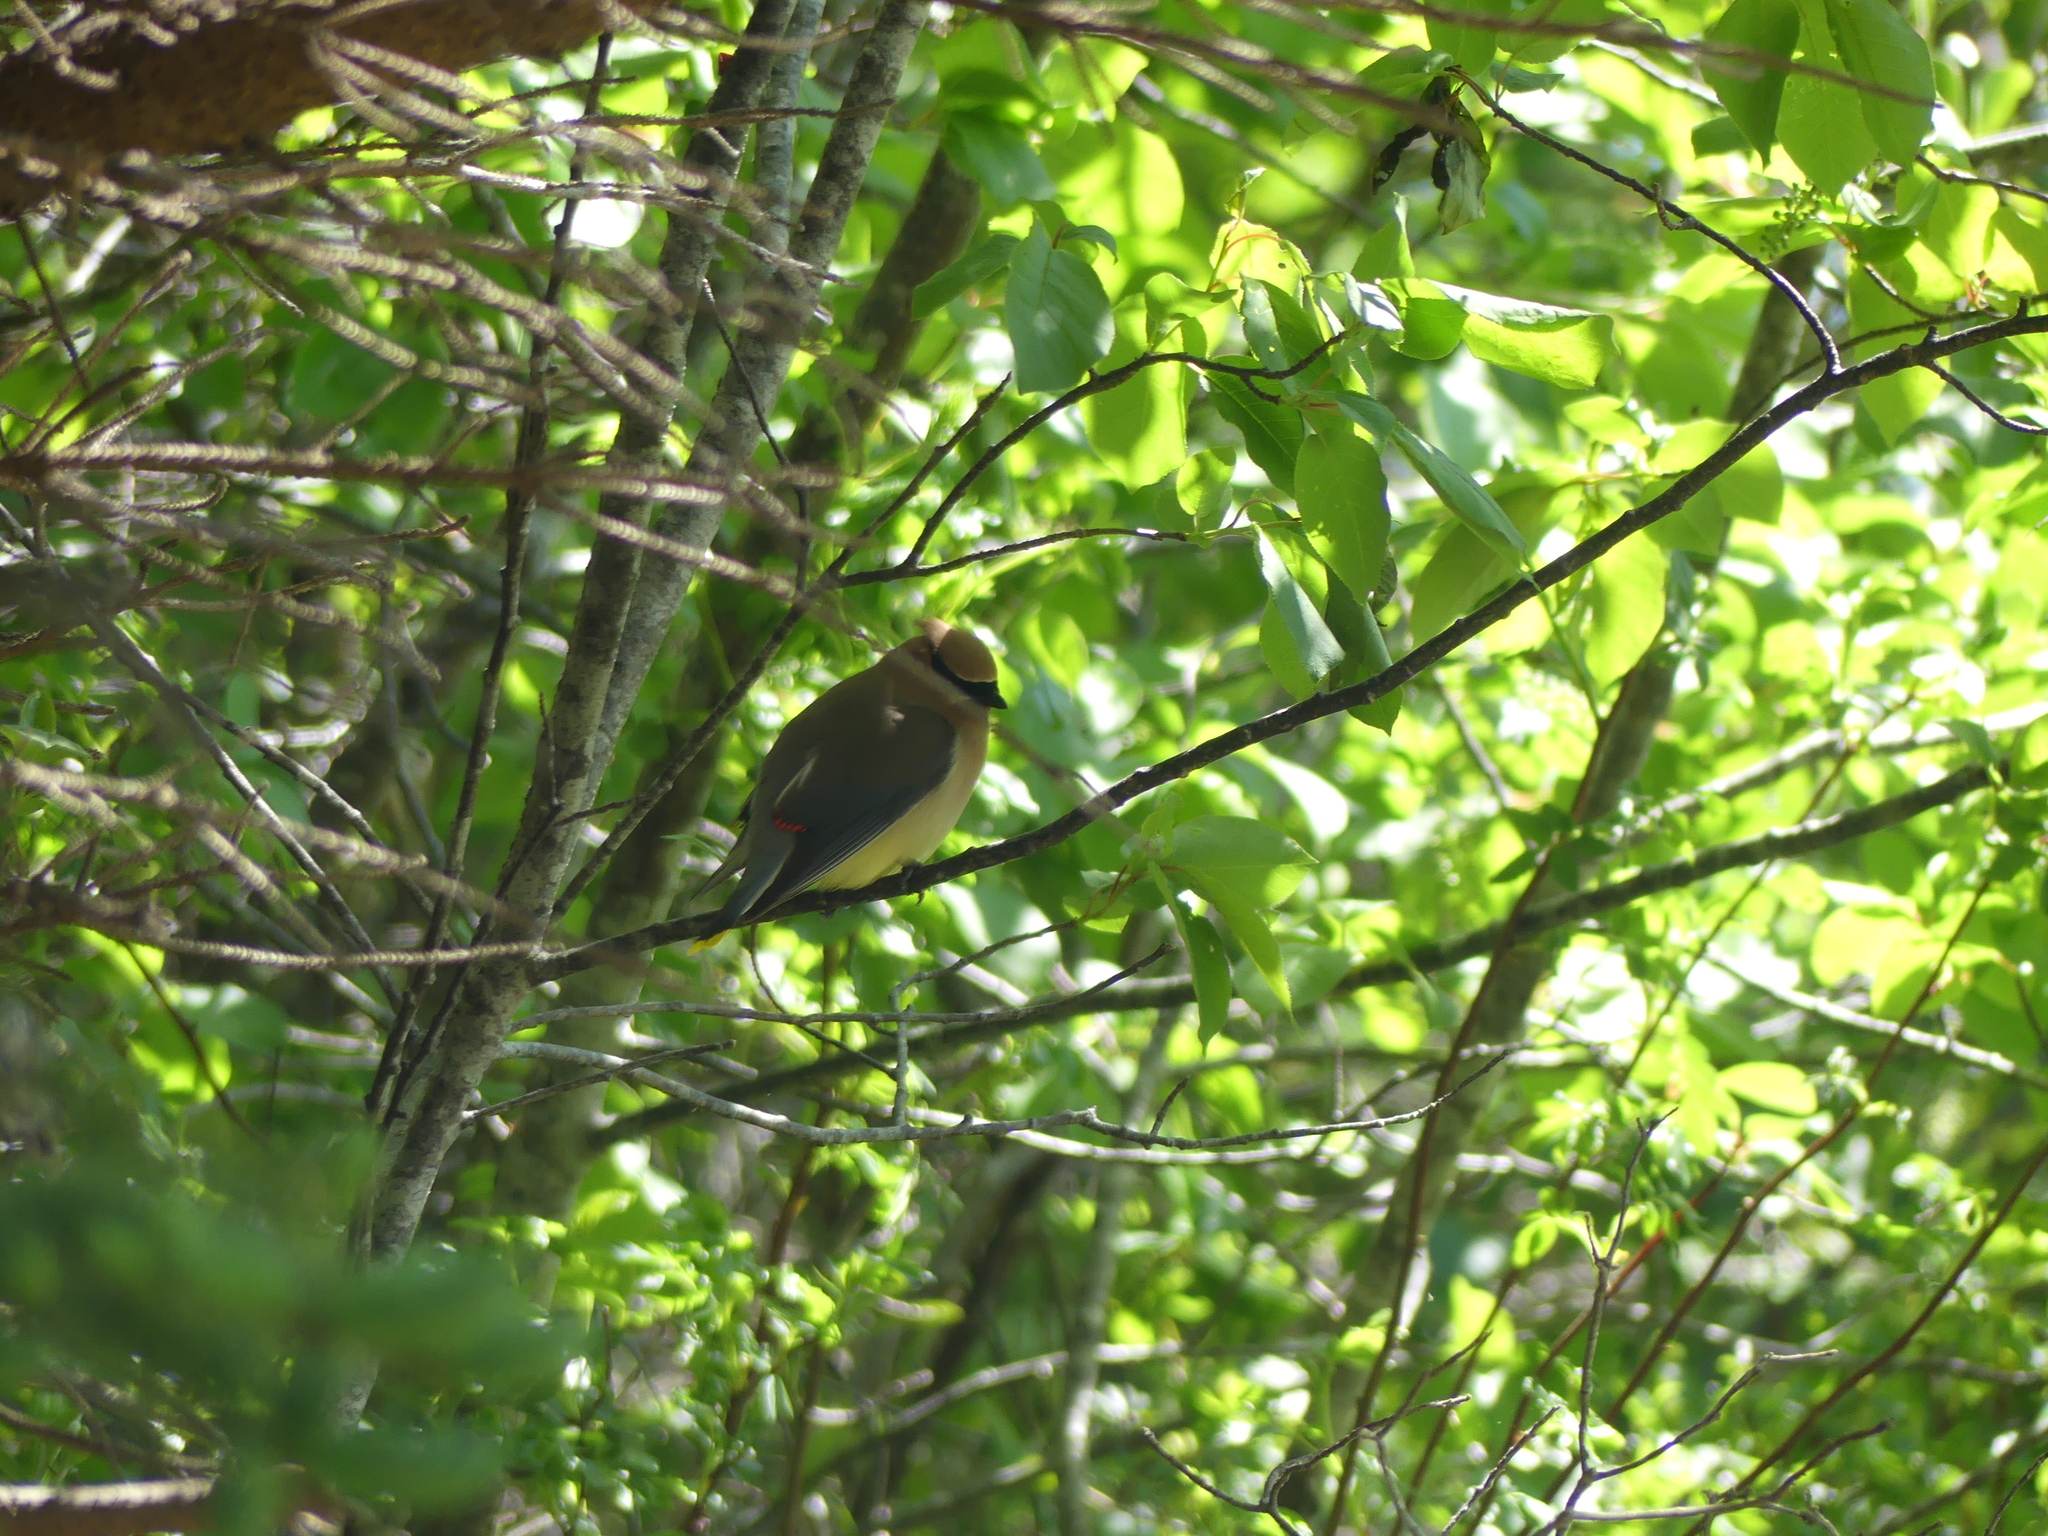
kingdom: Animalia
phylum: Chordata
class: Aves
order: Passeriformes
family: Bombycillidae
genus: Bombycilla
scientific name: Bombycilla cedrorum
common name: Cedar waxwing
